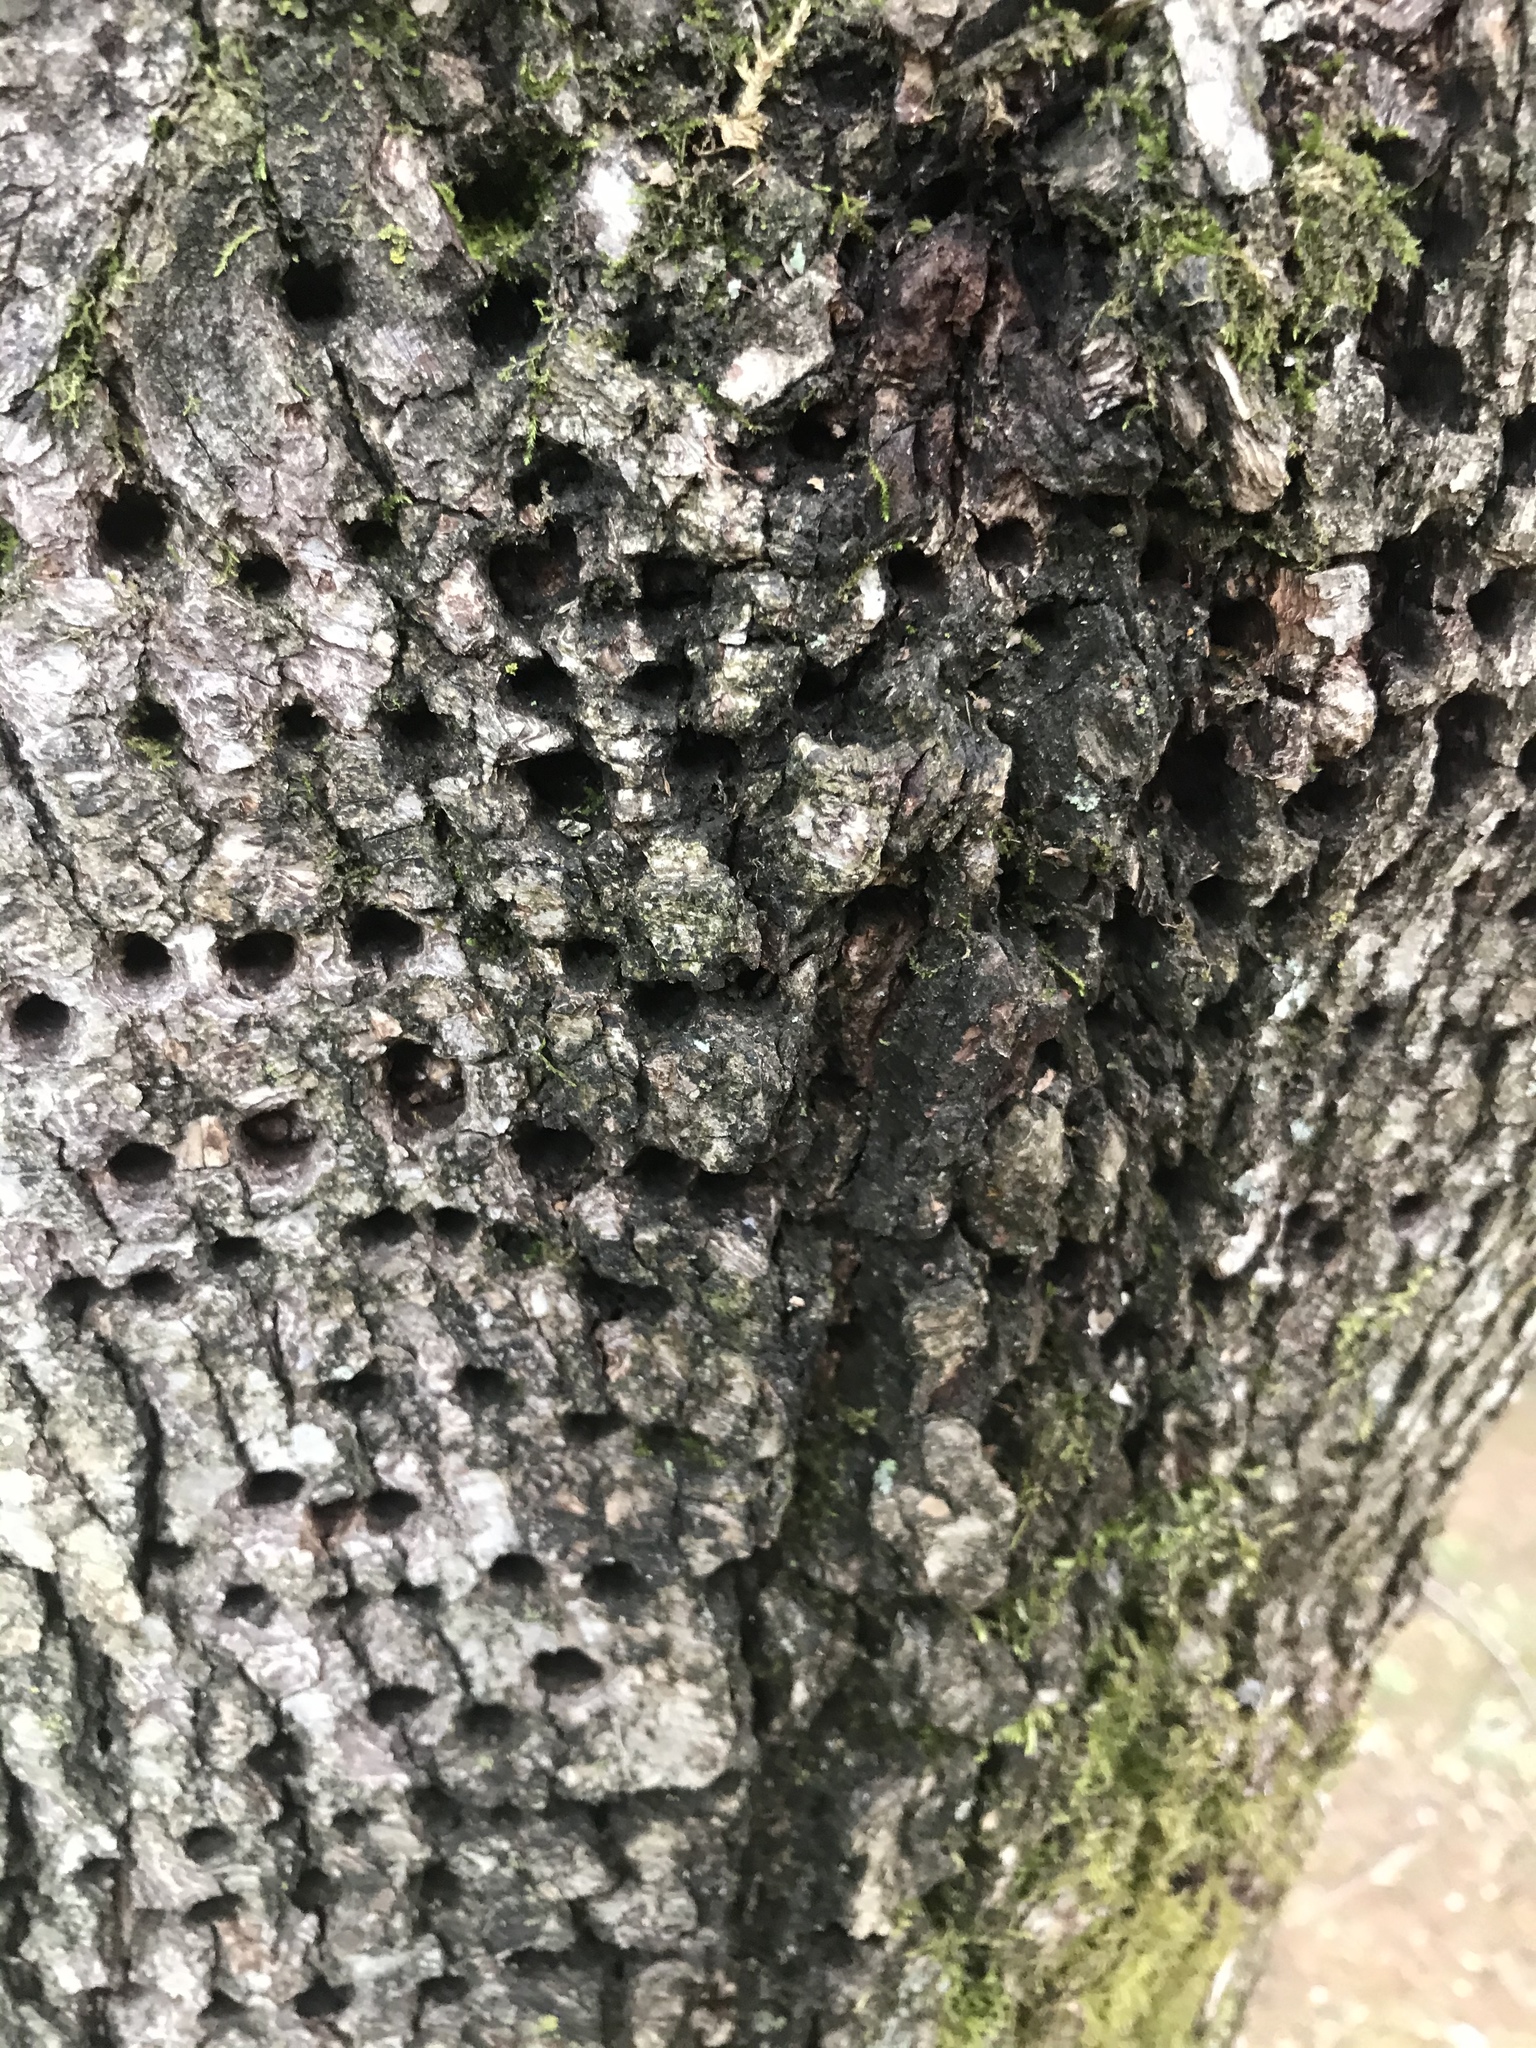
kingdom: Animalia
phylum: Chordata
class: Aves
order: Piciformes
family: Picidae
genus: Sphyrapicus
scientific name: Sphyrapicus varius
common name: Yellow-bellied sapsucker
